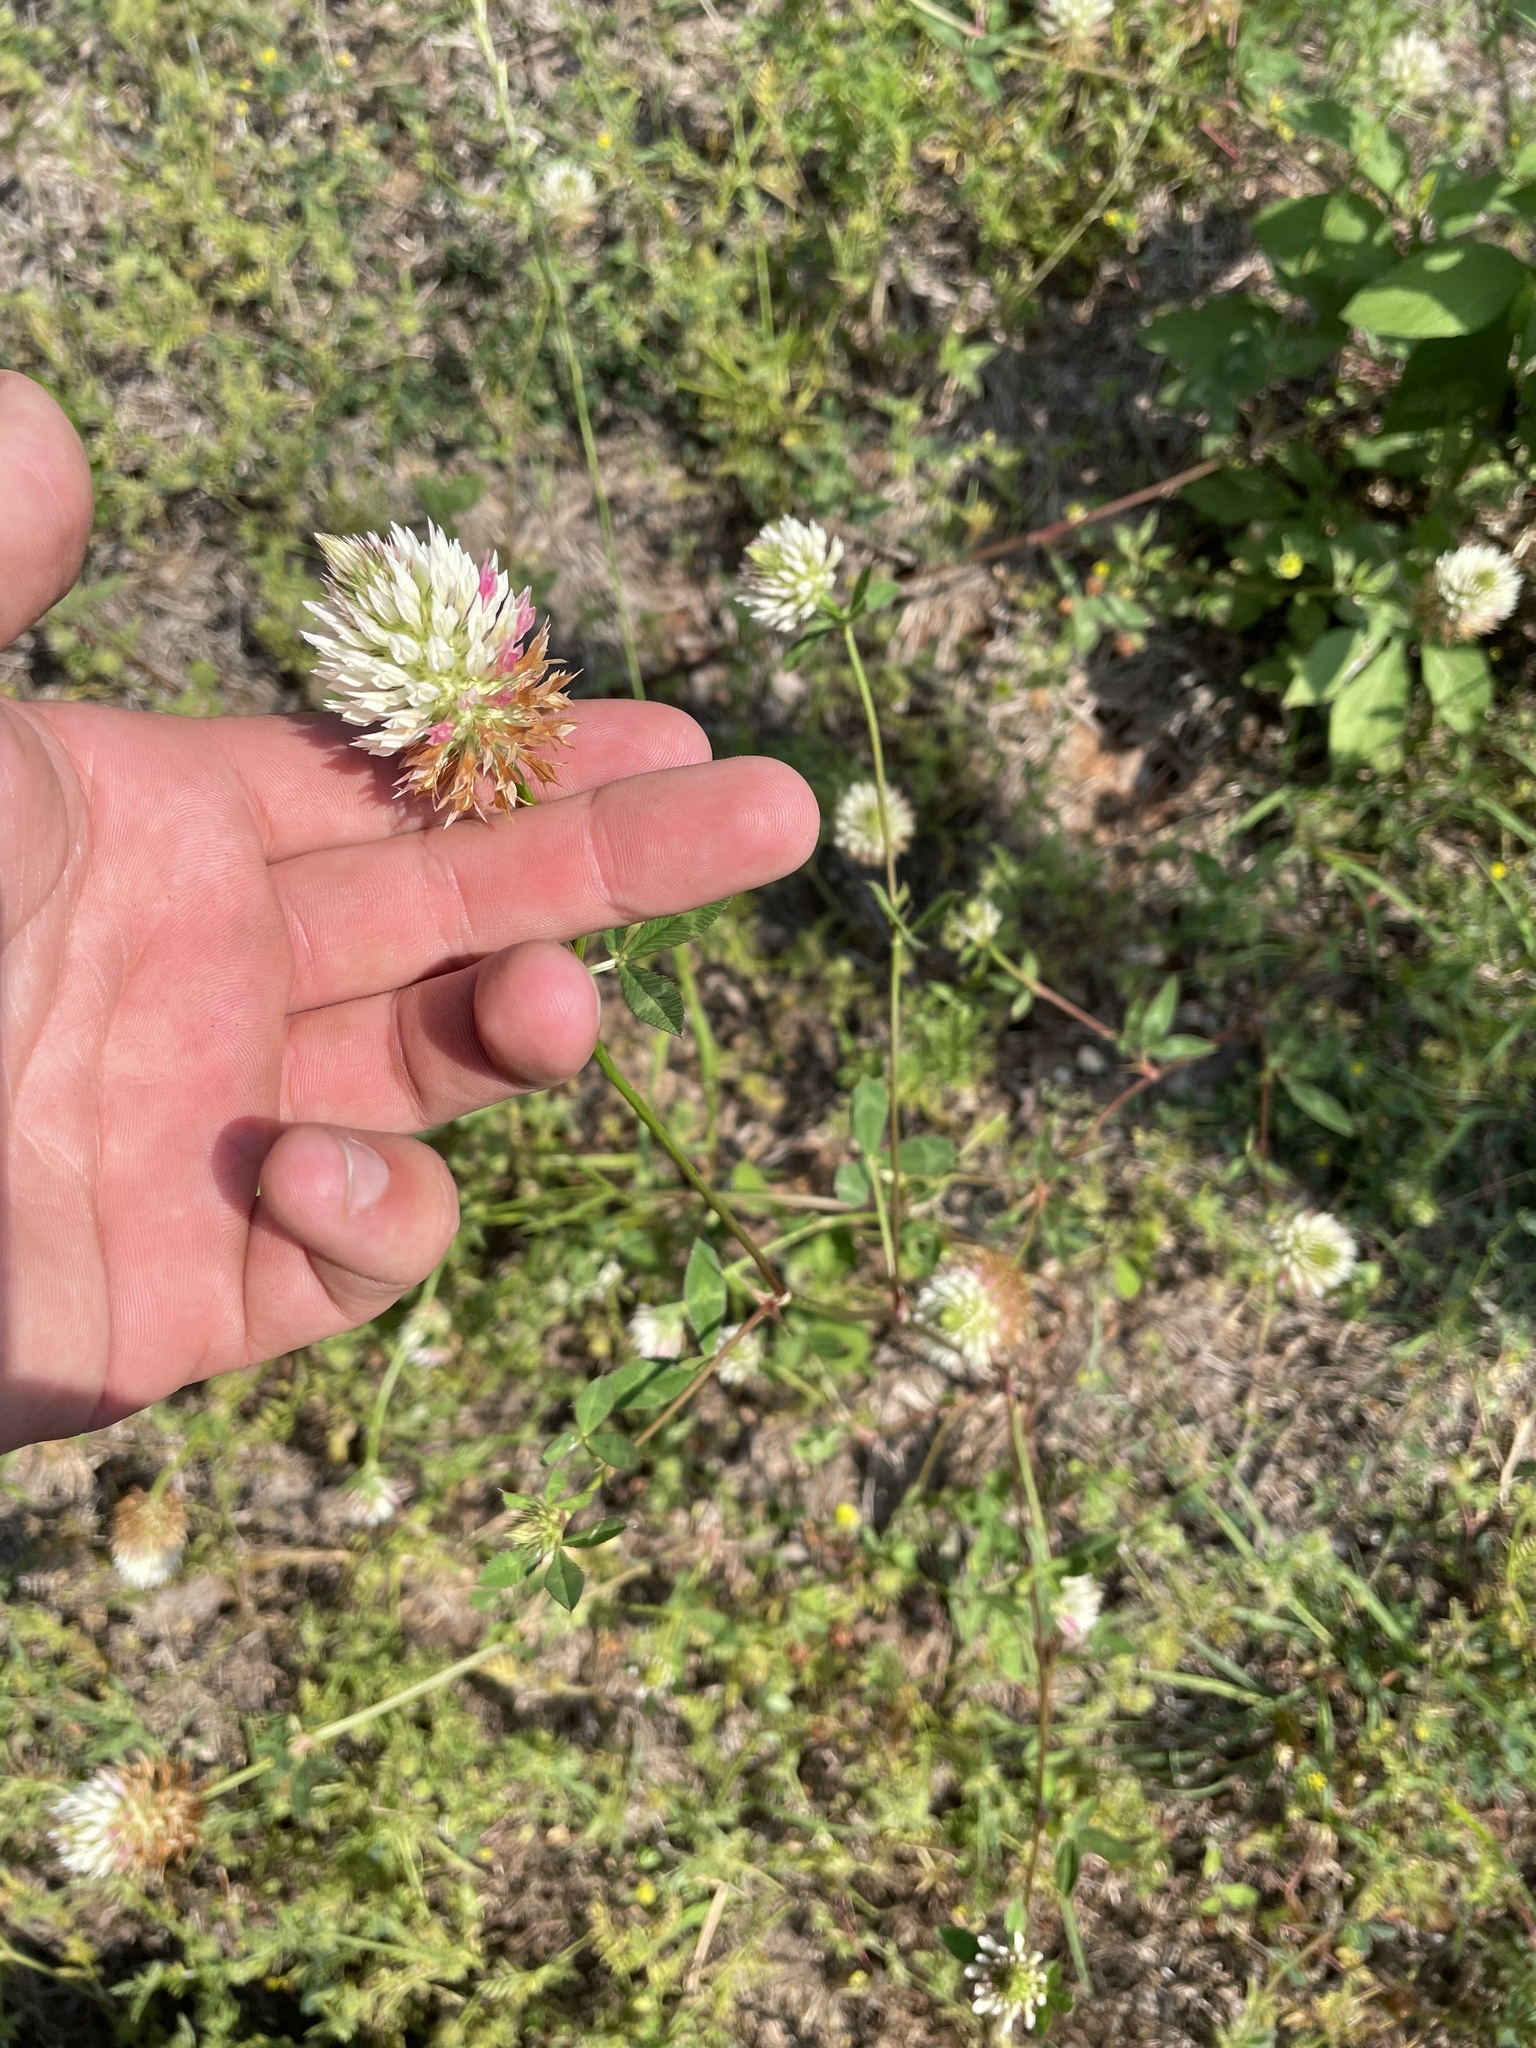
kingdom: Plantae
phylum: Tracheophyta
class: Magnoliopsida
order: Fabales
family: Fabaceae
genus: Trifolium
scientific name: Trifolium vesiculosum
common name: Arrowleaf clover
